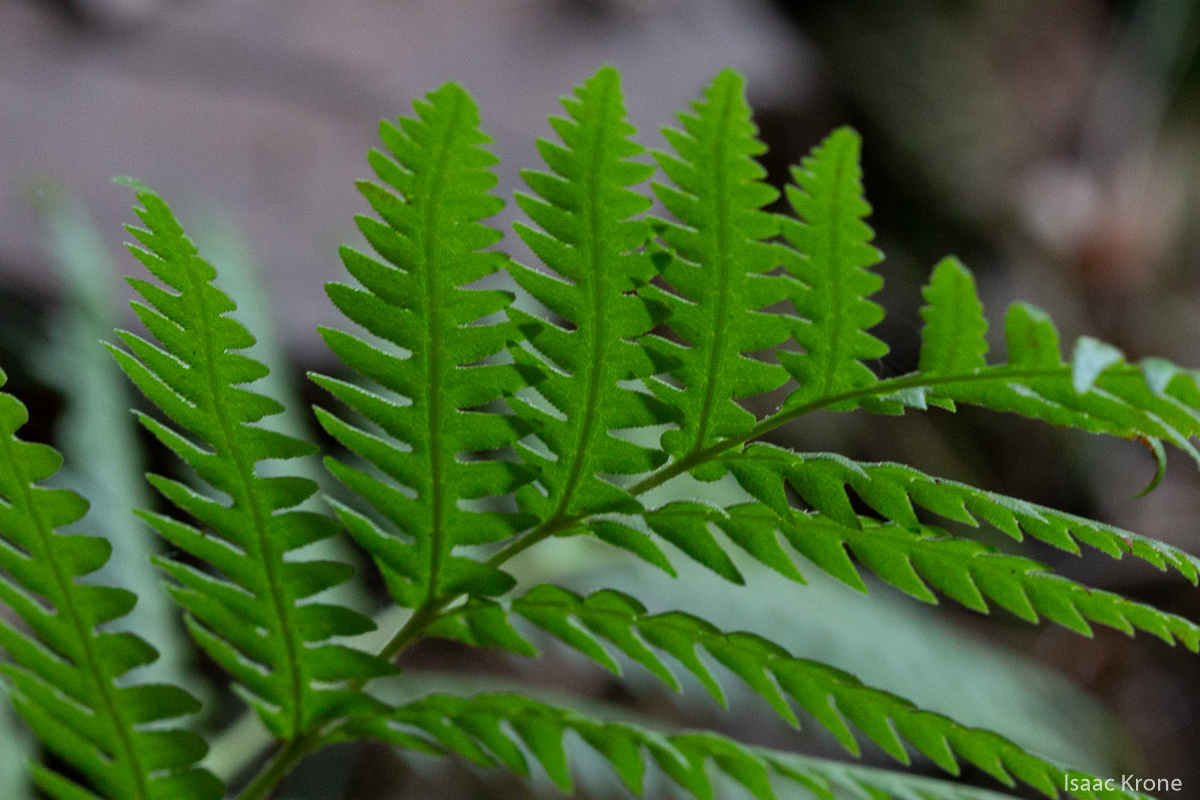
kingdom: Plantae
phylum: Tracheophyta
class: Polypodiopsida
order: Polypodiales
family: Blechnaceae
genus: Woodwardia
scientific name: Woodwardia fimbriata
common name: Giant chain fern
